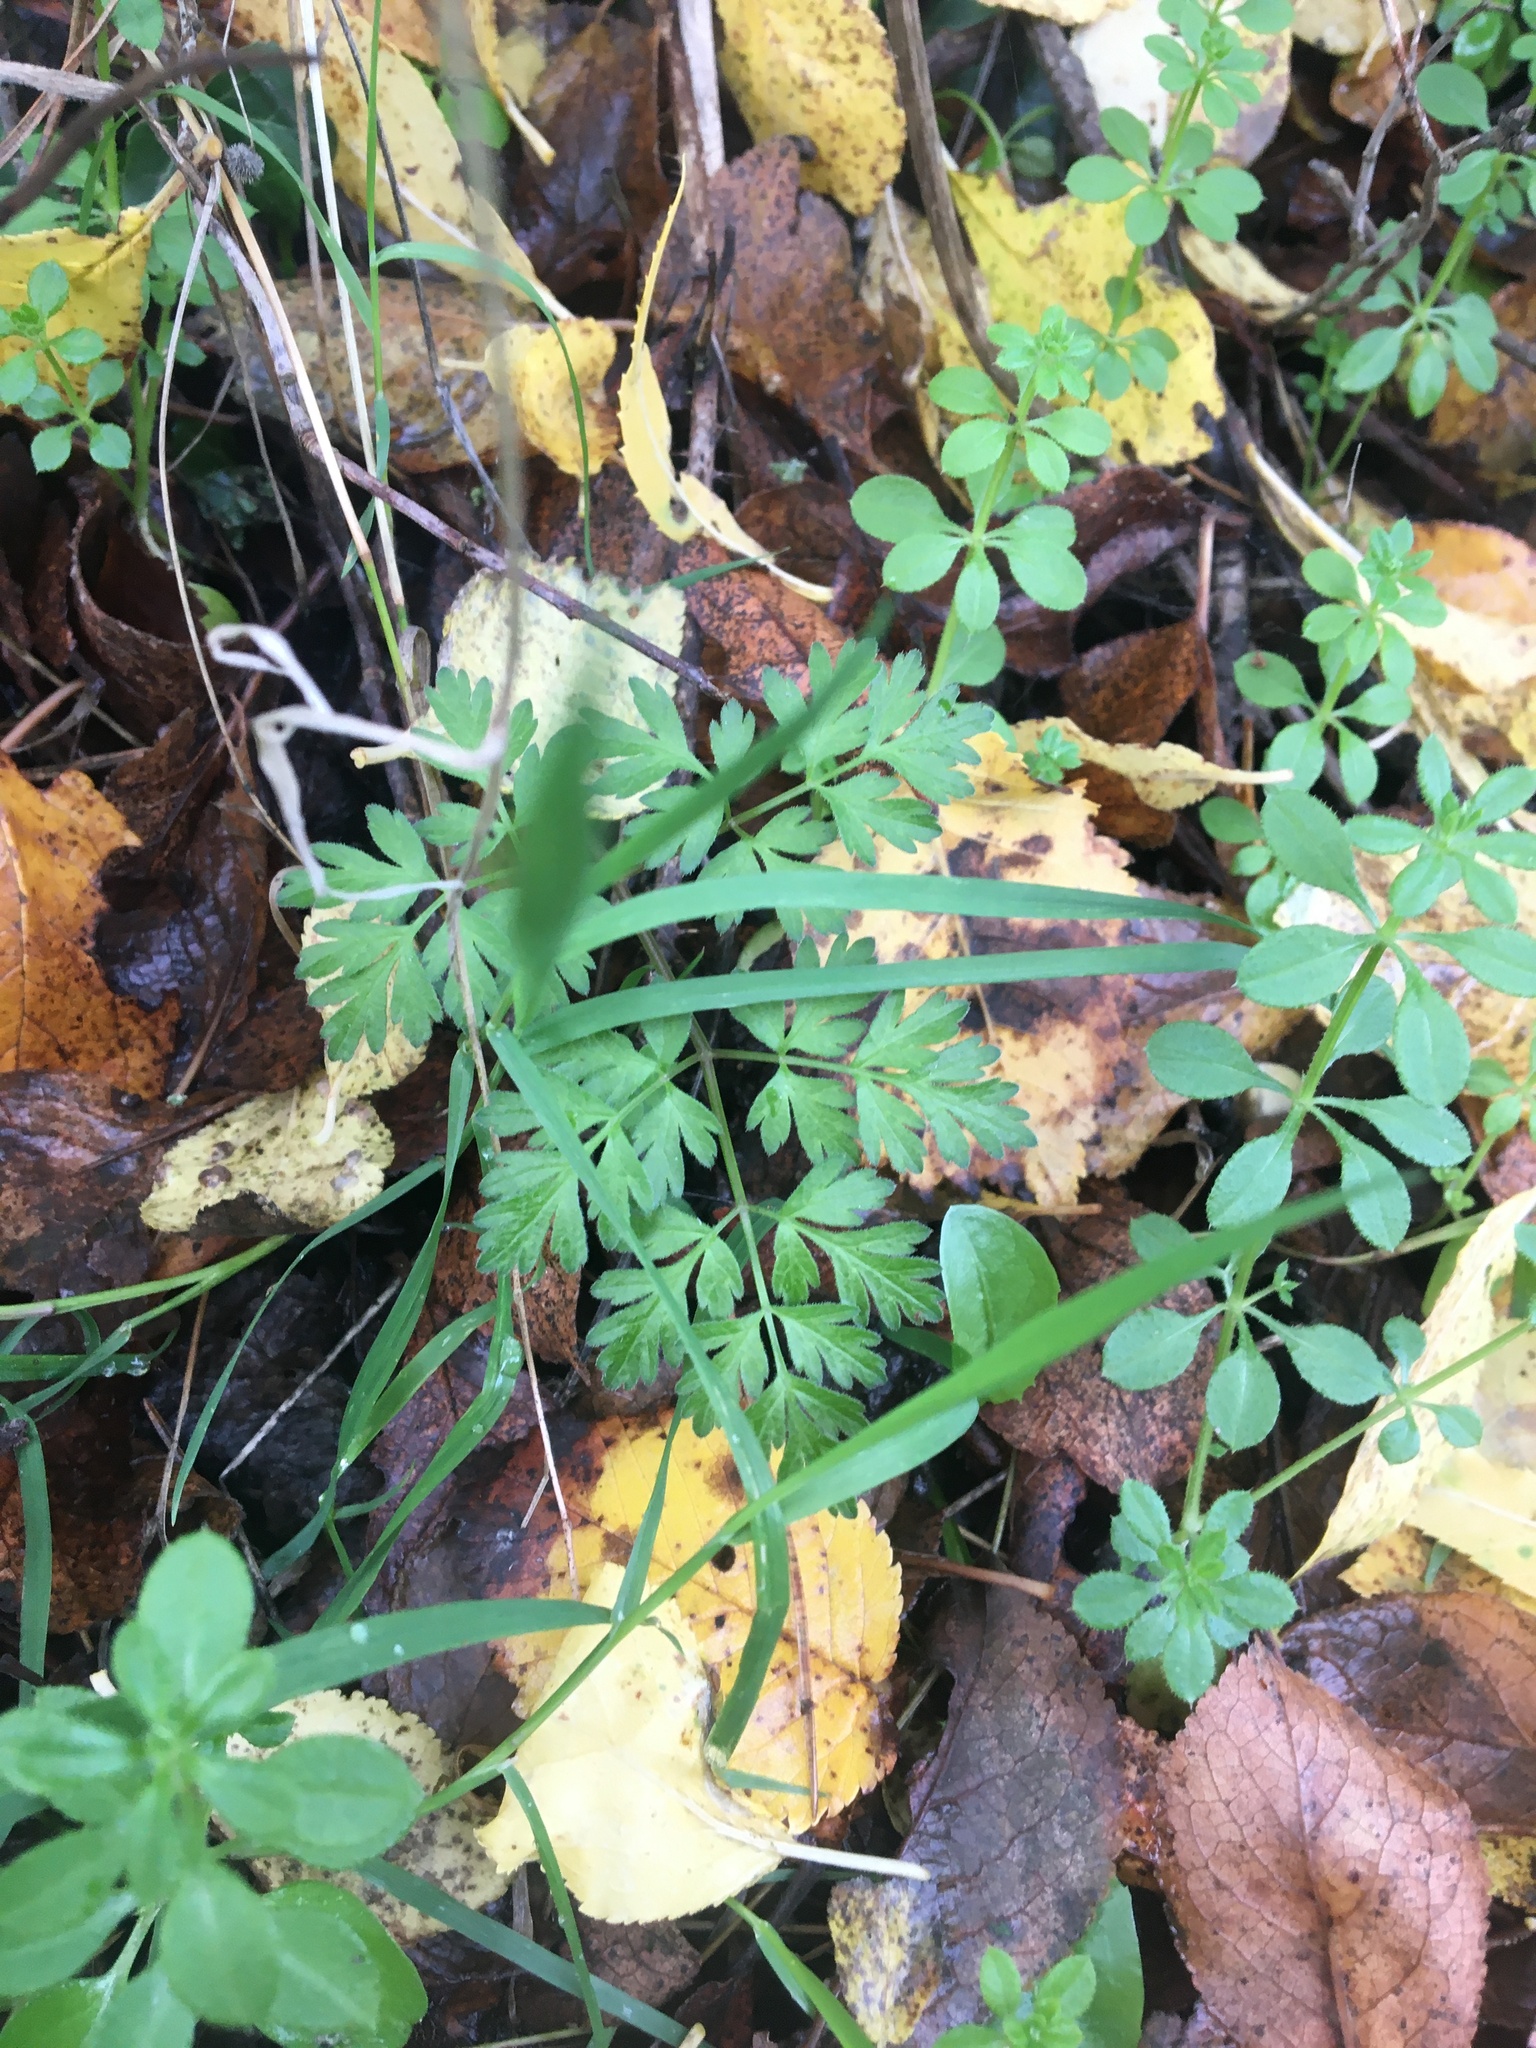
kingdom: Plantae
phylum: Tracheophyta
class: Magnoliopsida
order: Apiales
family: Apiaceae
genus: Anthriscus
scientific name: Anthriscus sylvestris
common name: Cow parsley
